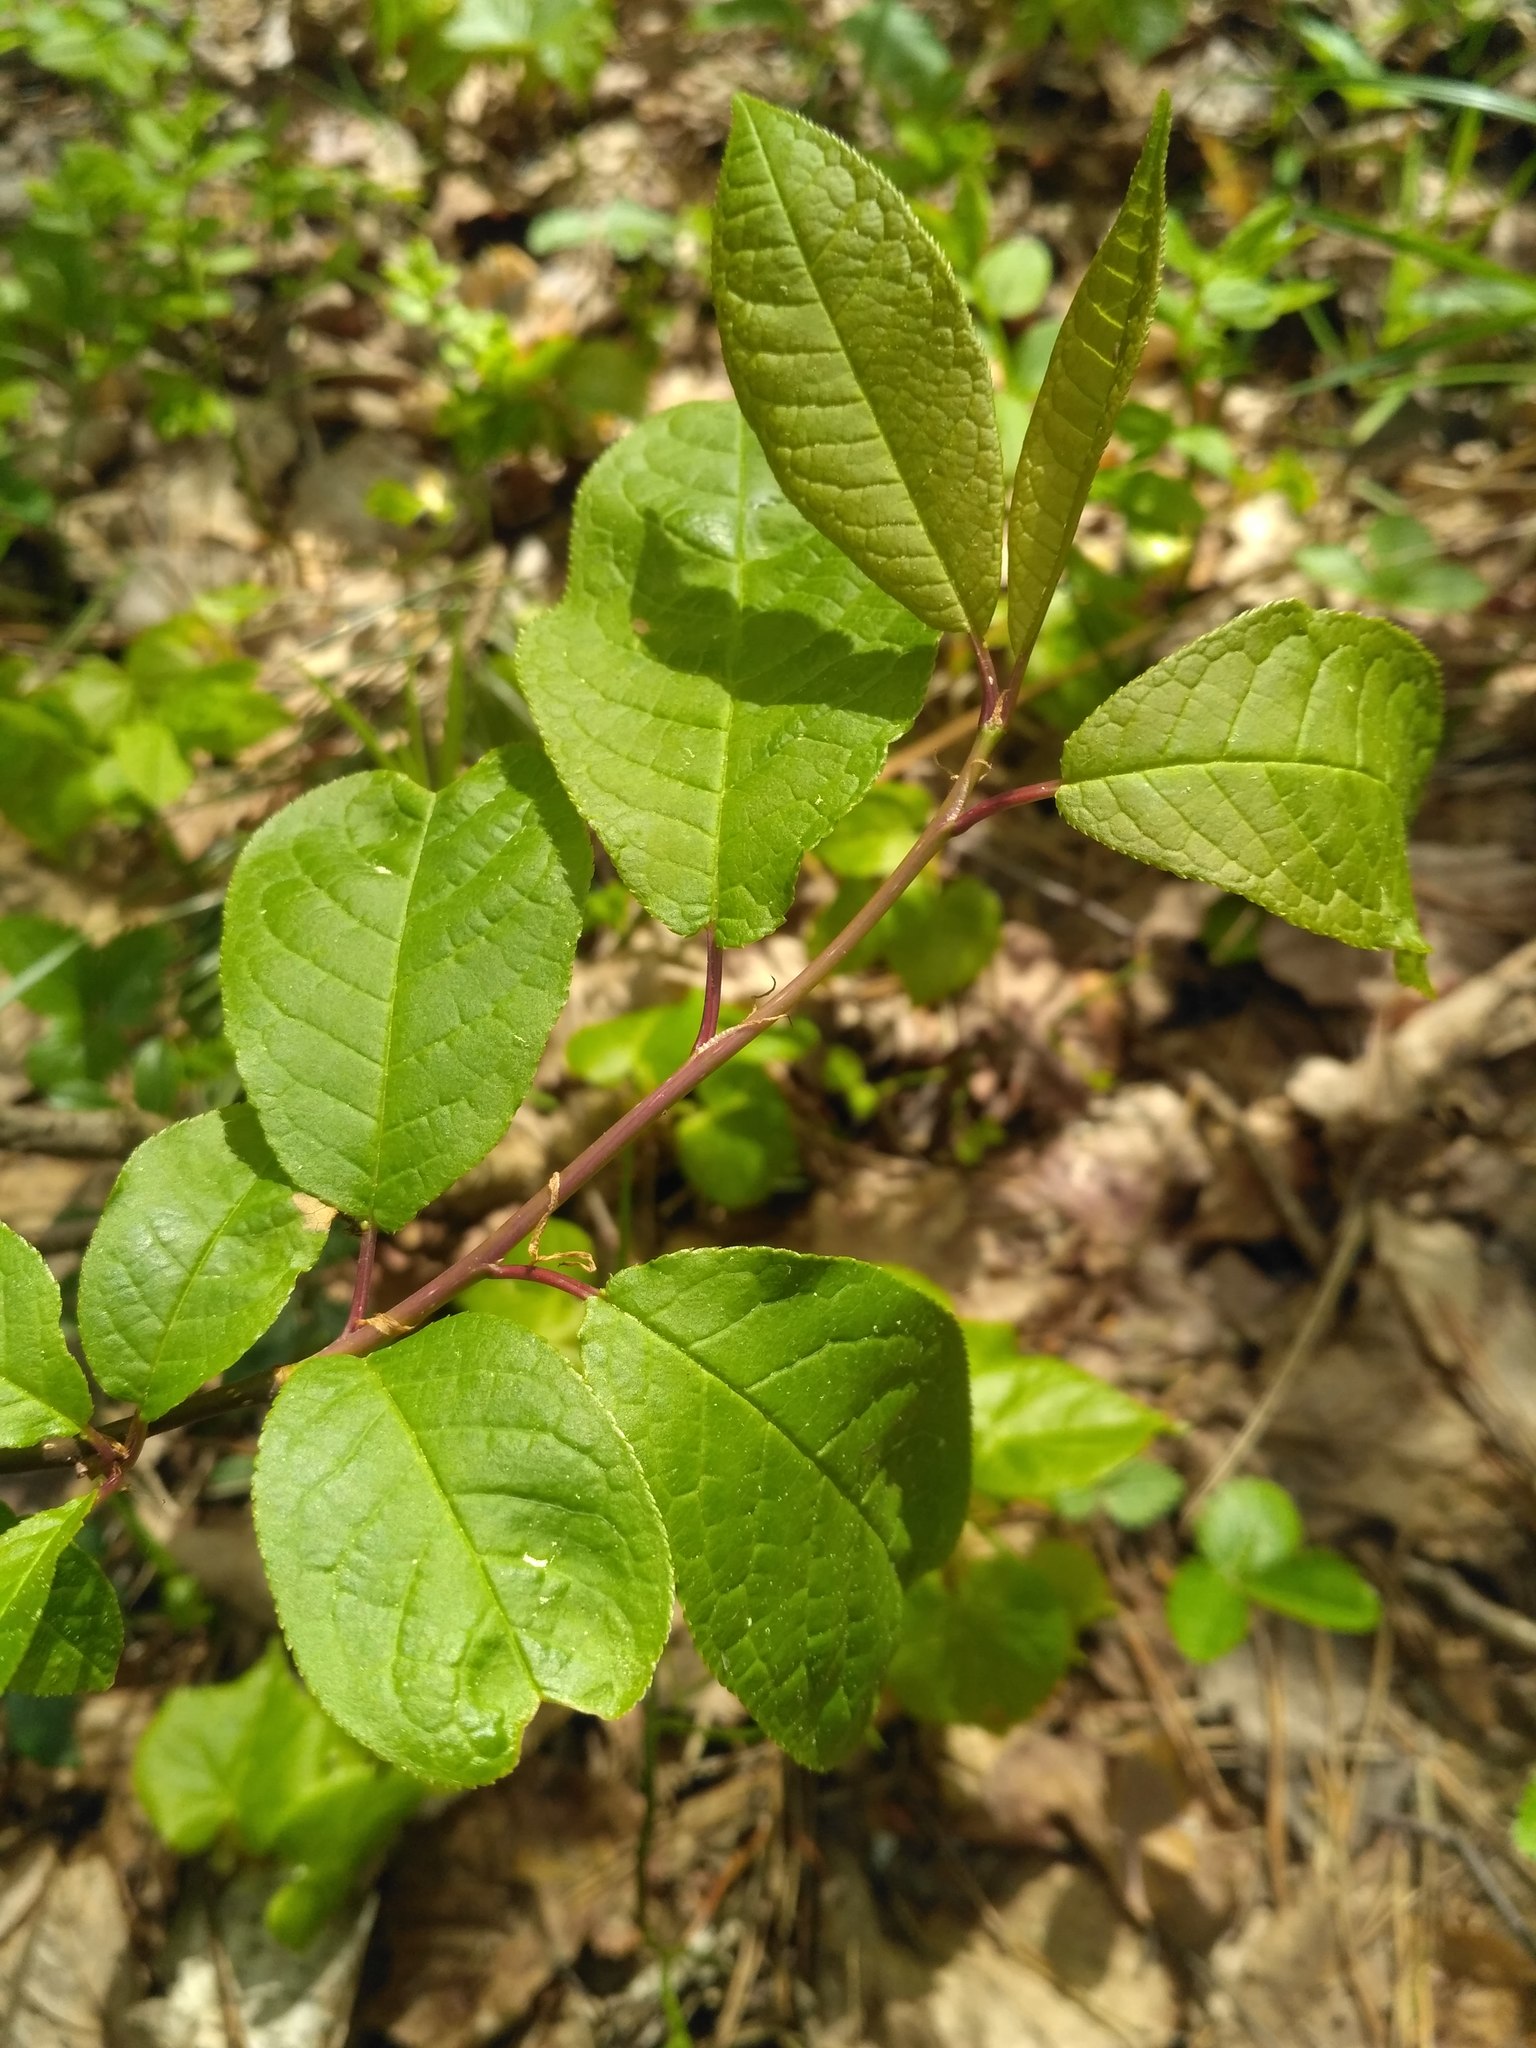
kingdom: Plantae
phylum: Tracheophyta
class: Magnoliopsida
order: Rosales
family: Rosaceae
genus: Prunus
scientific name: Prunus padus
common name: Bird cherry
